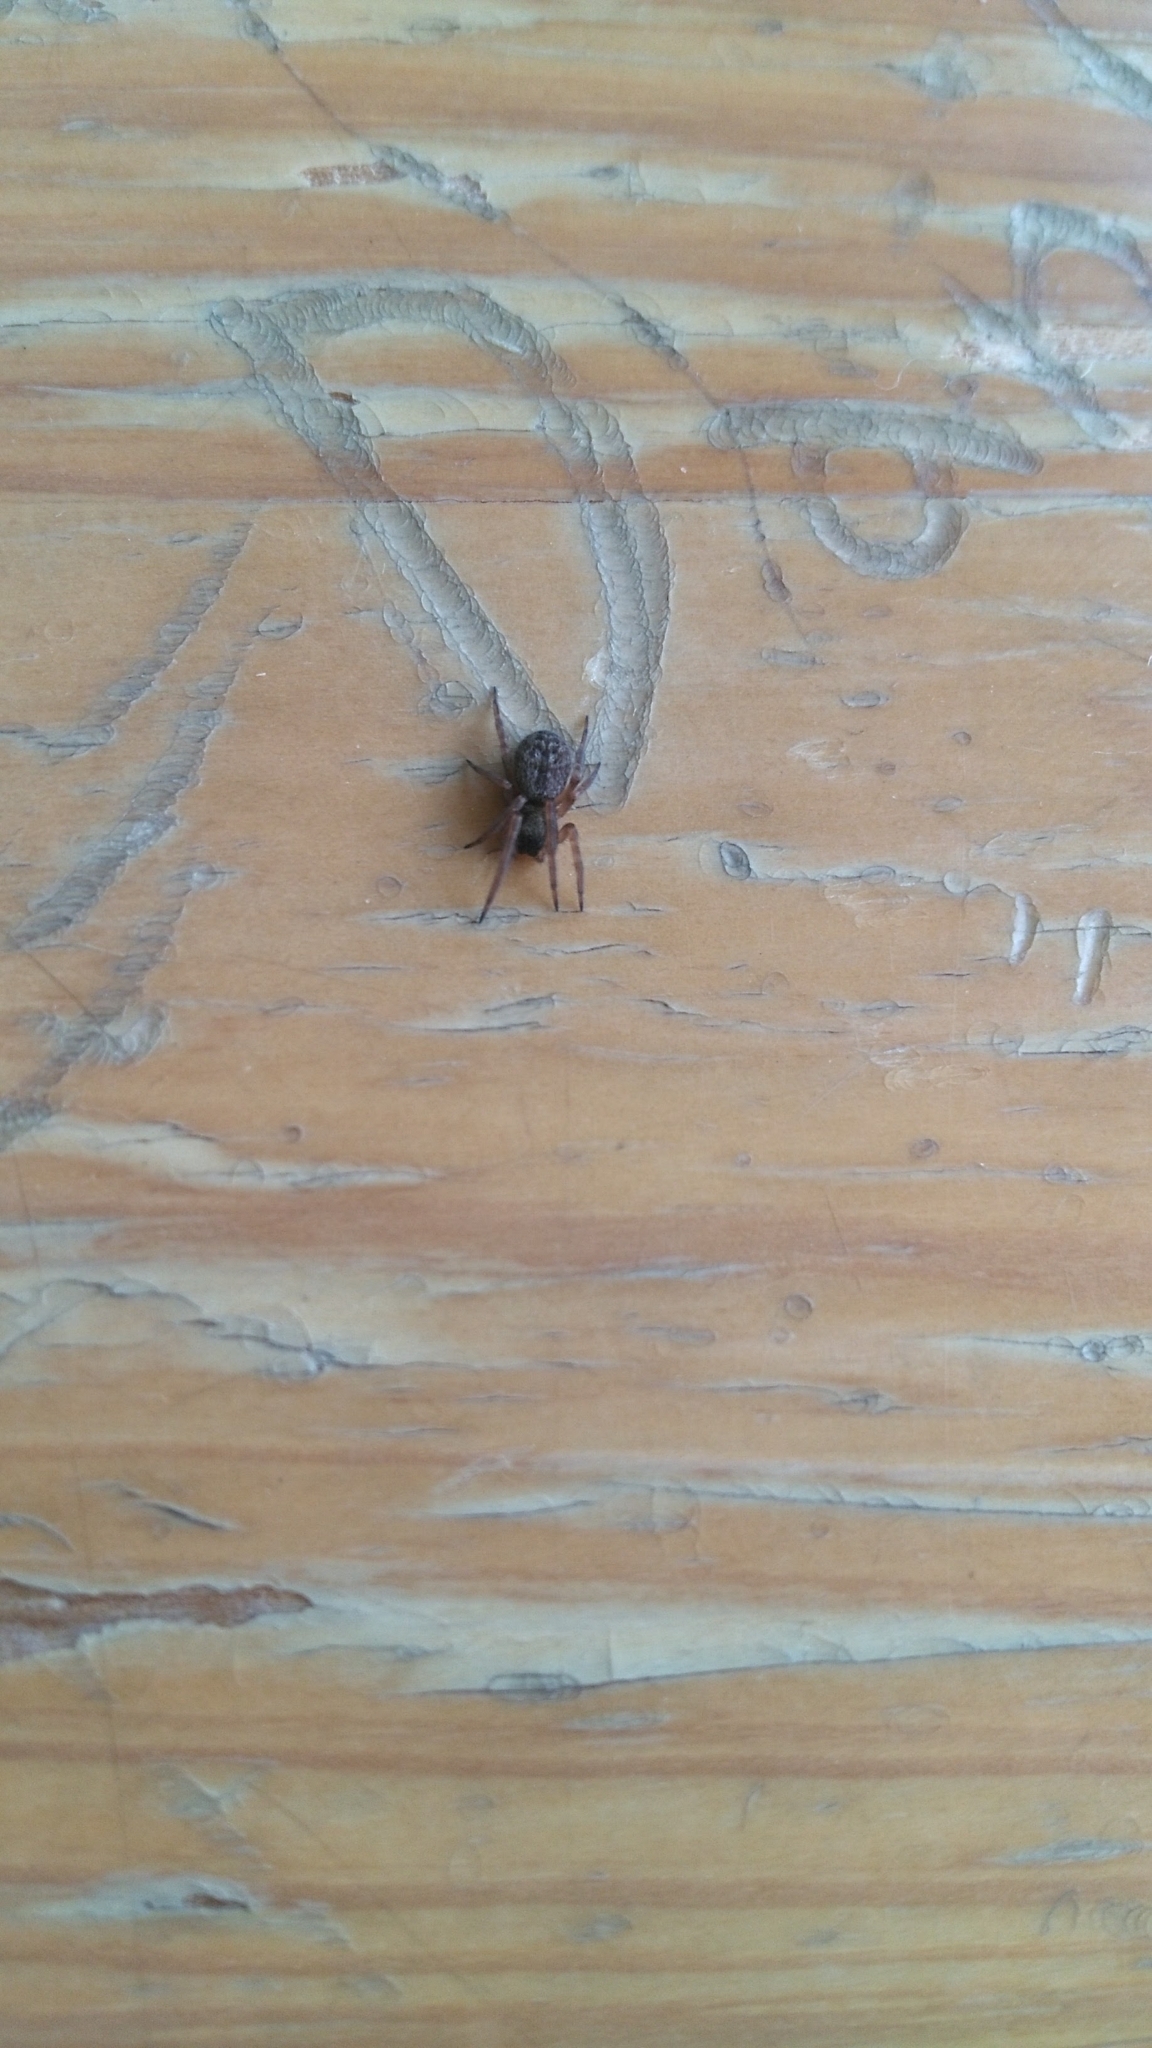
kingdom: Animalia
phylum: Arthropoda
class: Arachnida
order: Araneae
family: Desidae
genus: Badumna
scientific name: Badumna longinqua
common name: Gray house spider
